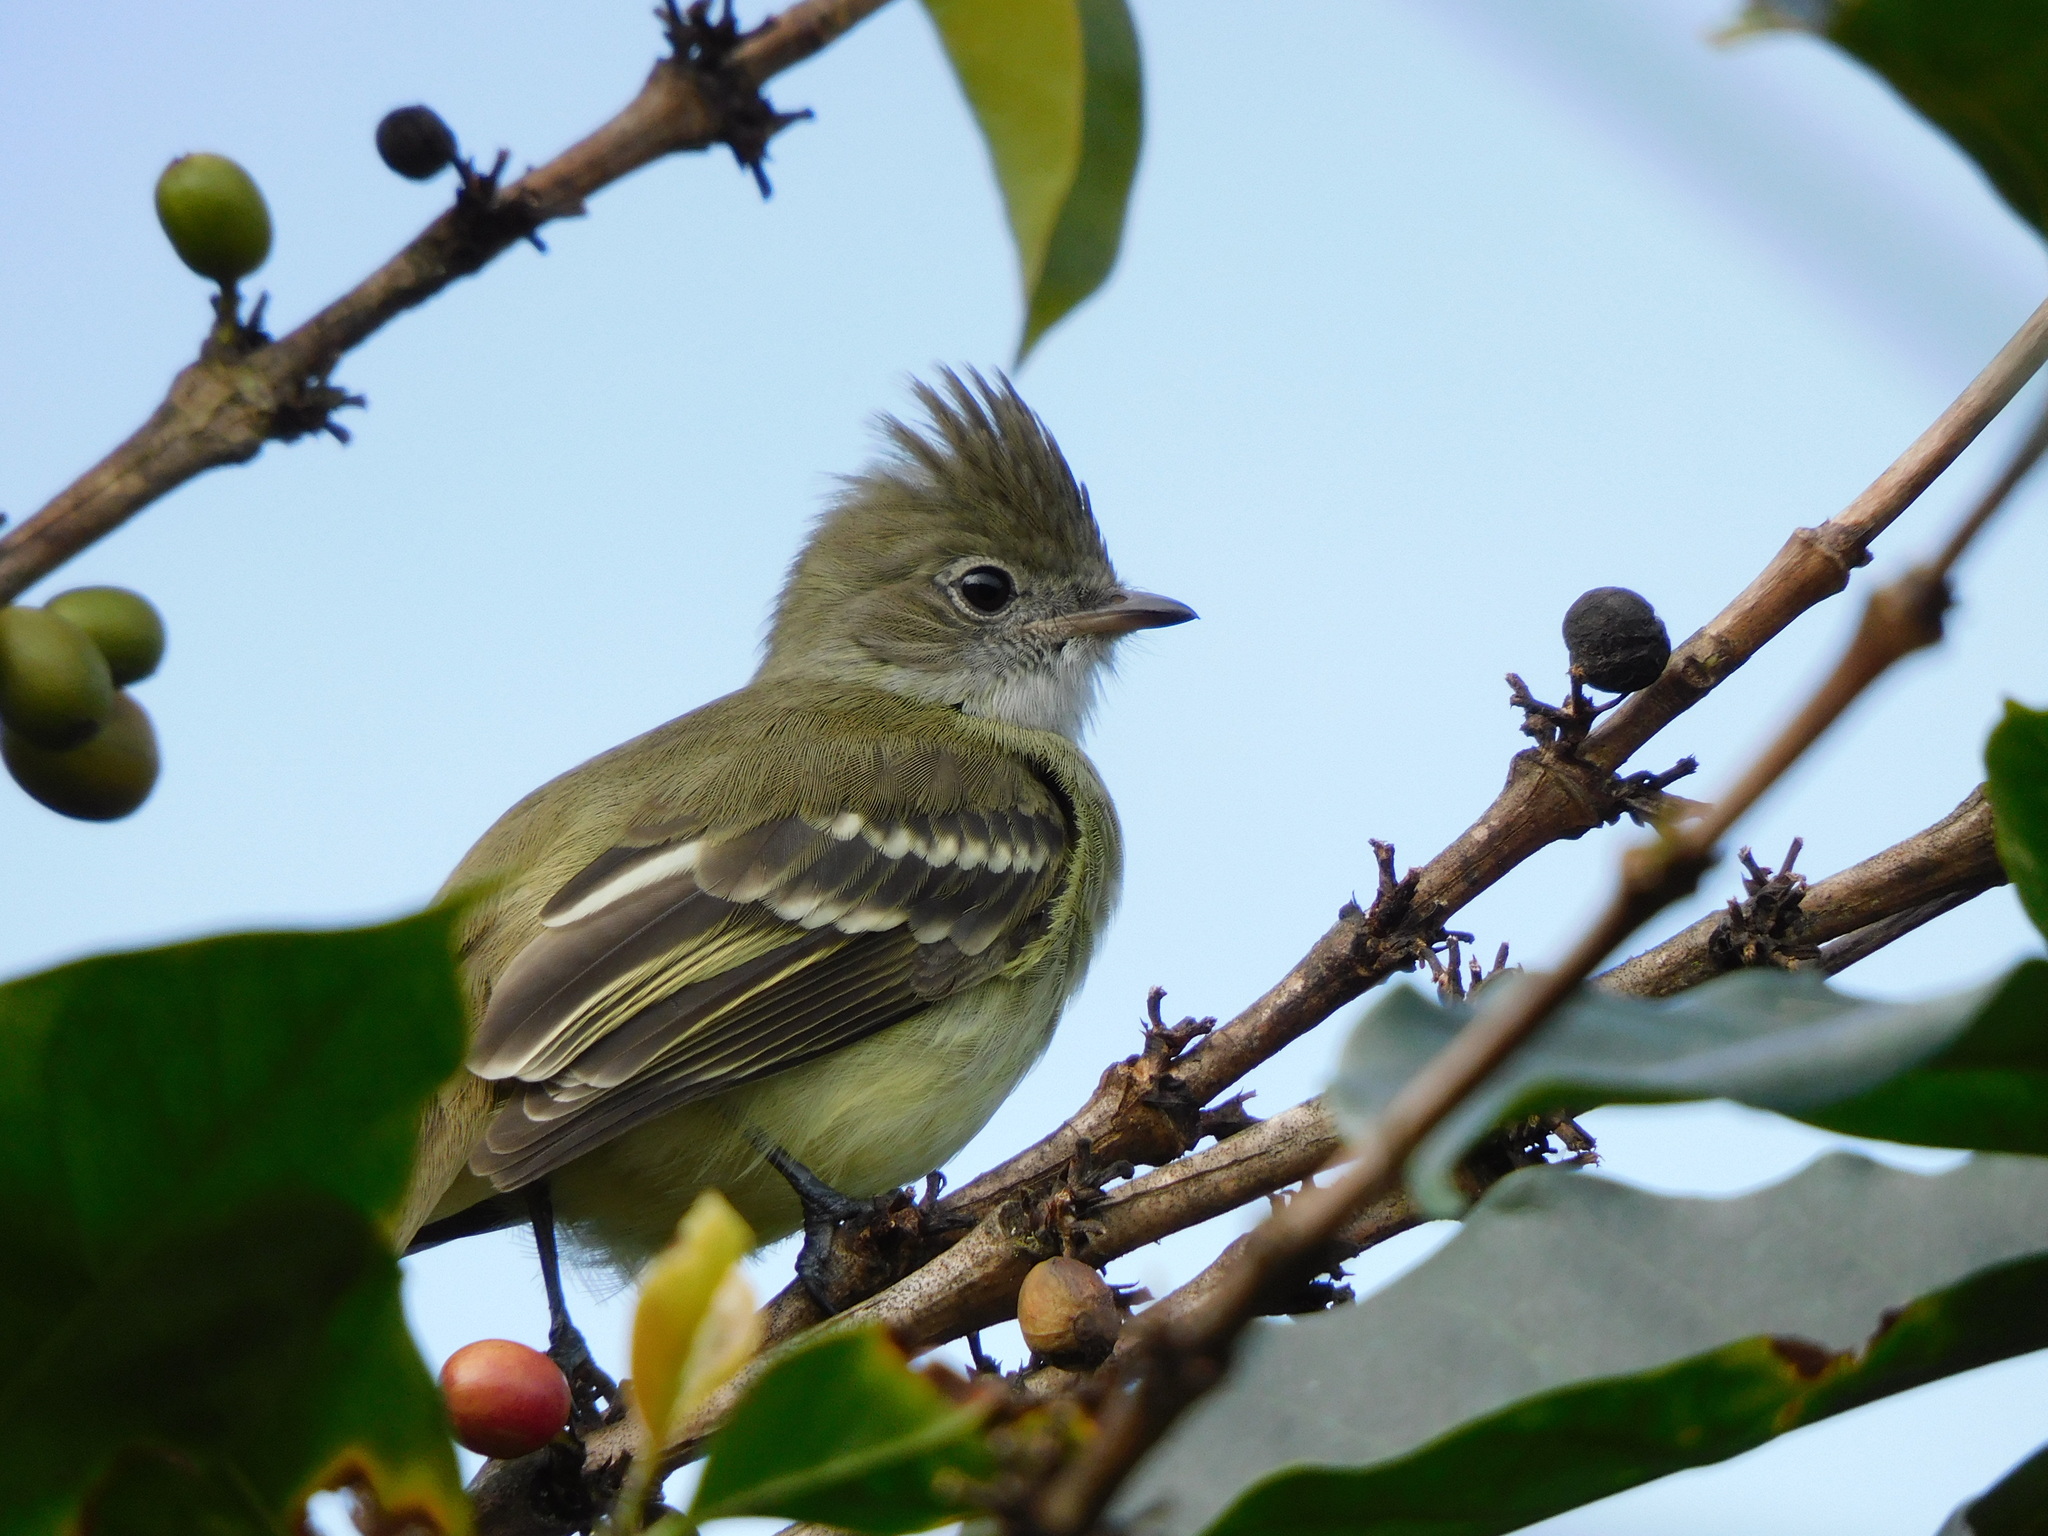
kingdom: Animalia
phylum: Chordata
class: Aves
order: Passeriformes
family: Tyrannidae
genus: Elaenia
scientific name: Elaenia flavogaster
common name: Yellow-bellied elaenia
